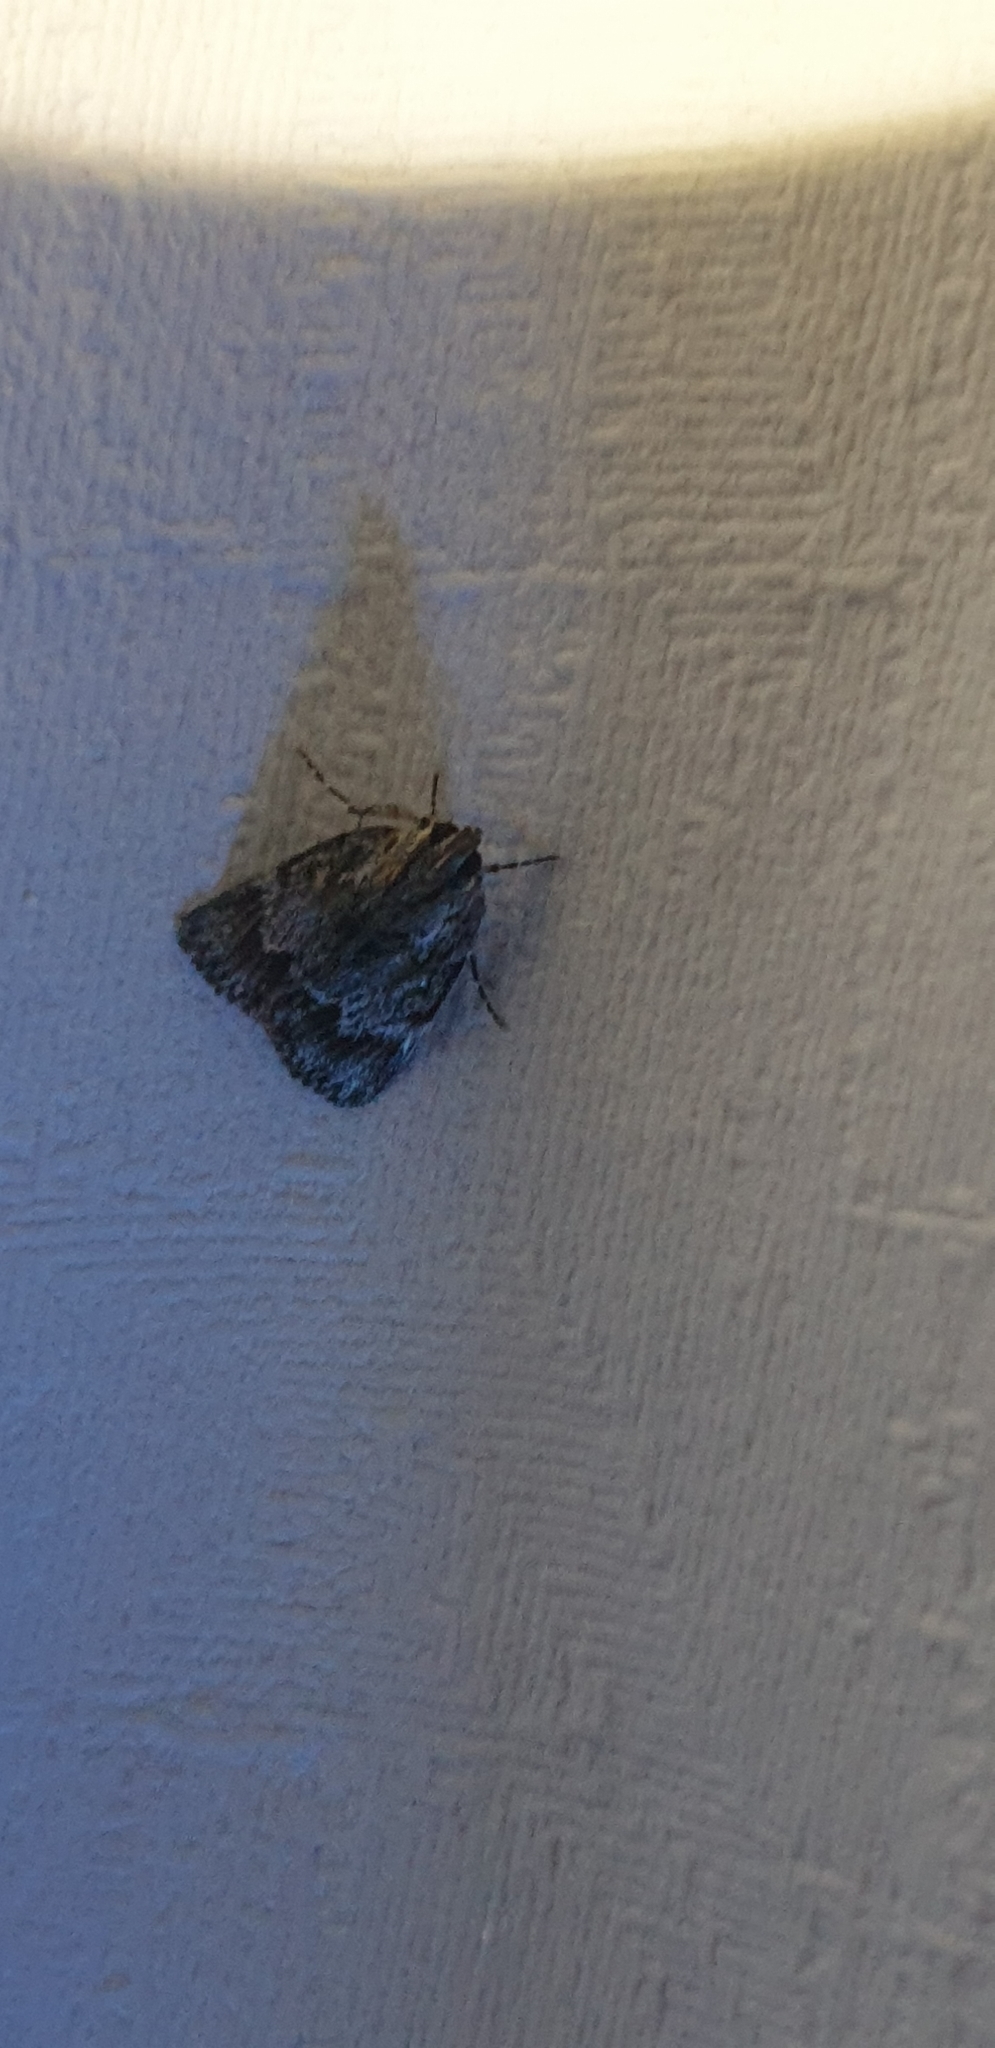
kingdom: Animalia
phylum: Arthropoda
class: Insecta
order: Lepidoptera
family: Pyralidae
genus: Spectrotrota
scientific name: Spectrotrota fimbrialis
